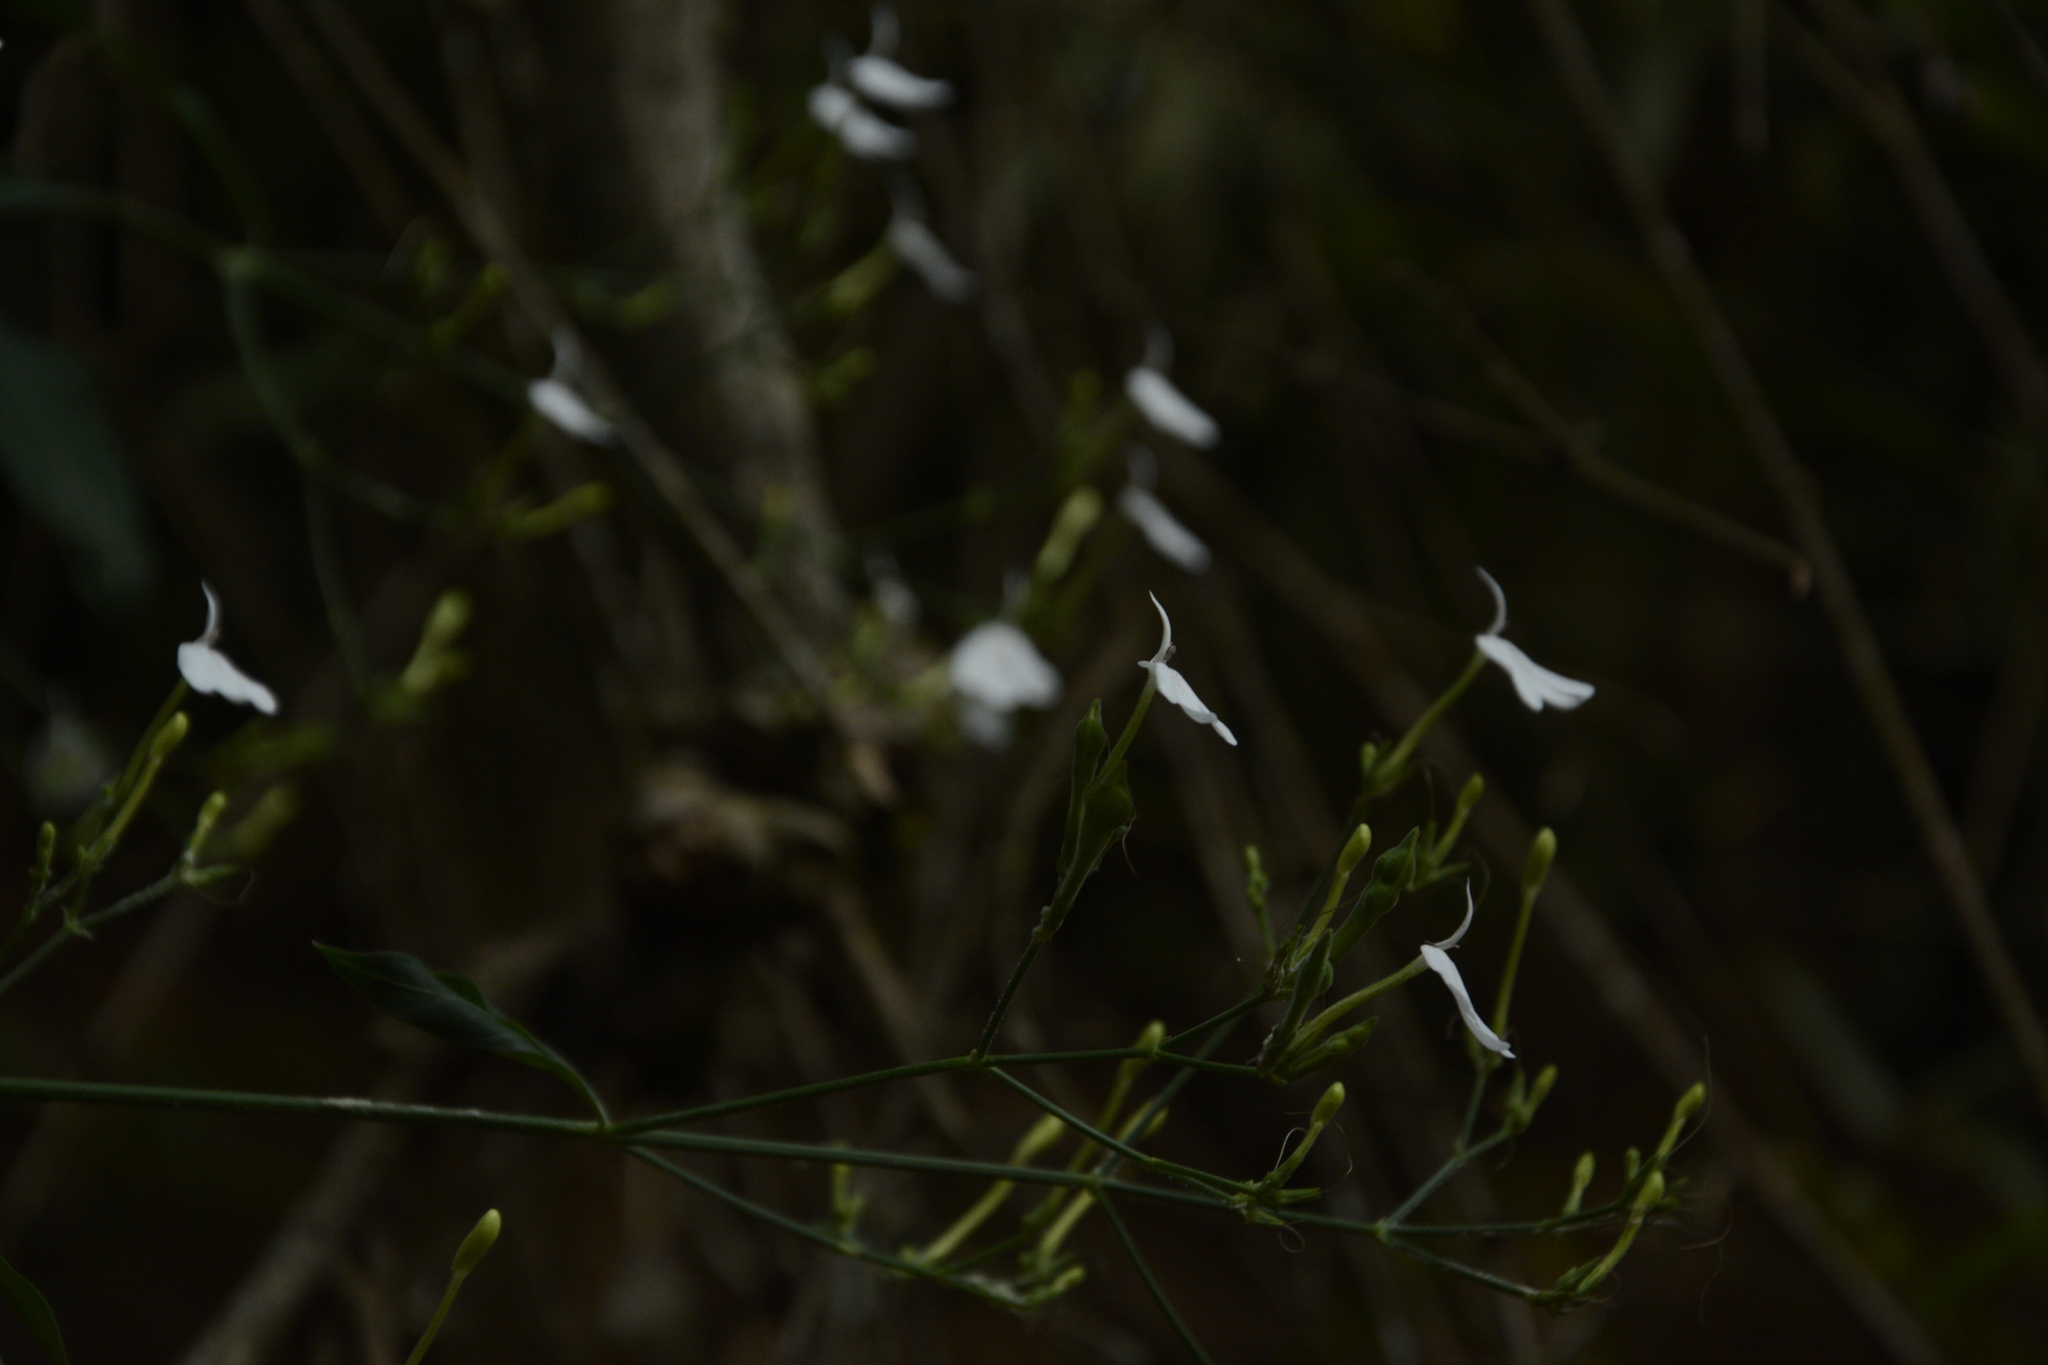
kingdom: Plantae
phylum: Tracheophyta
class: Magnoliopsida
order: Lamiales
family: Acanthaceae
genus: Rhinacanthus
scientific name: Rhinacanthus nasutus
